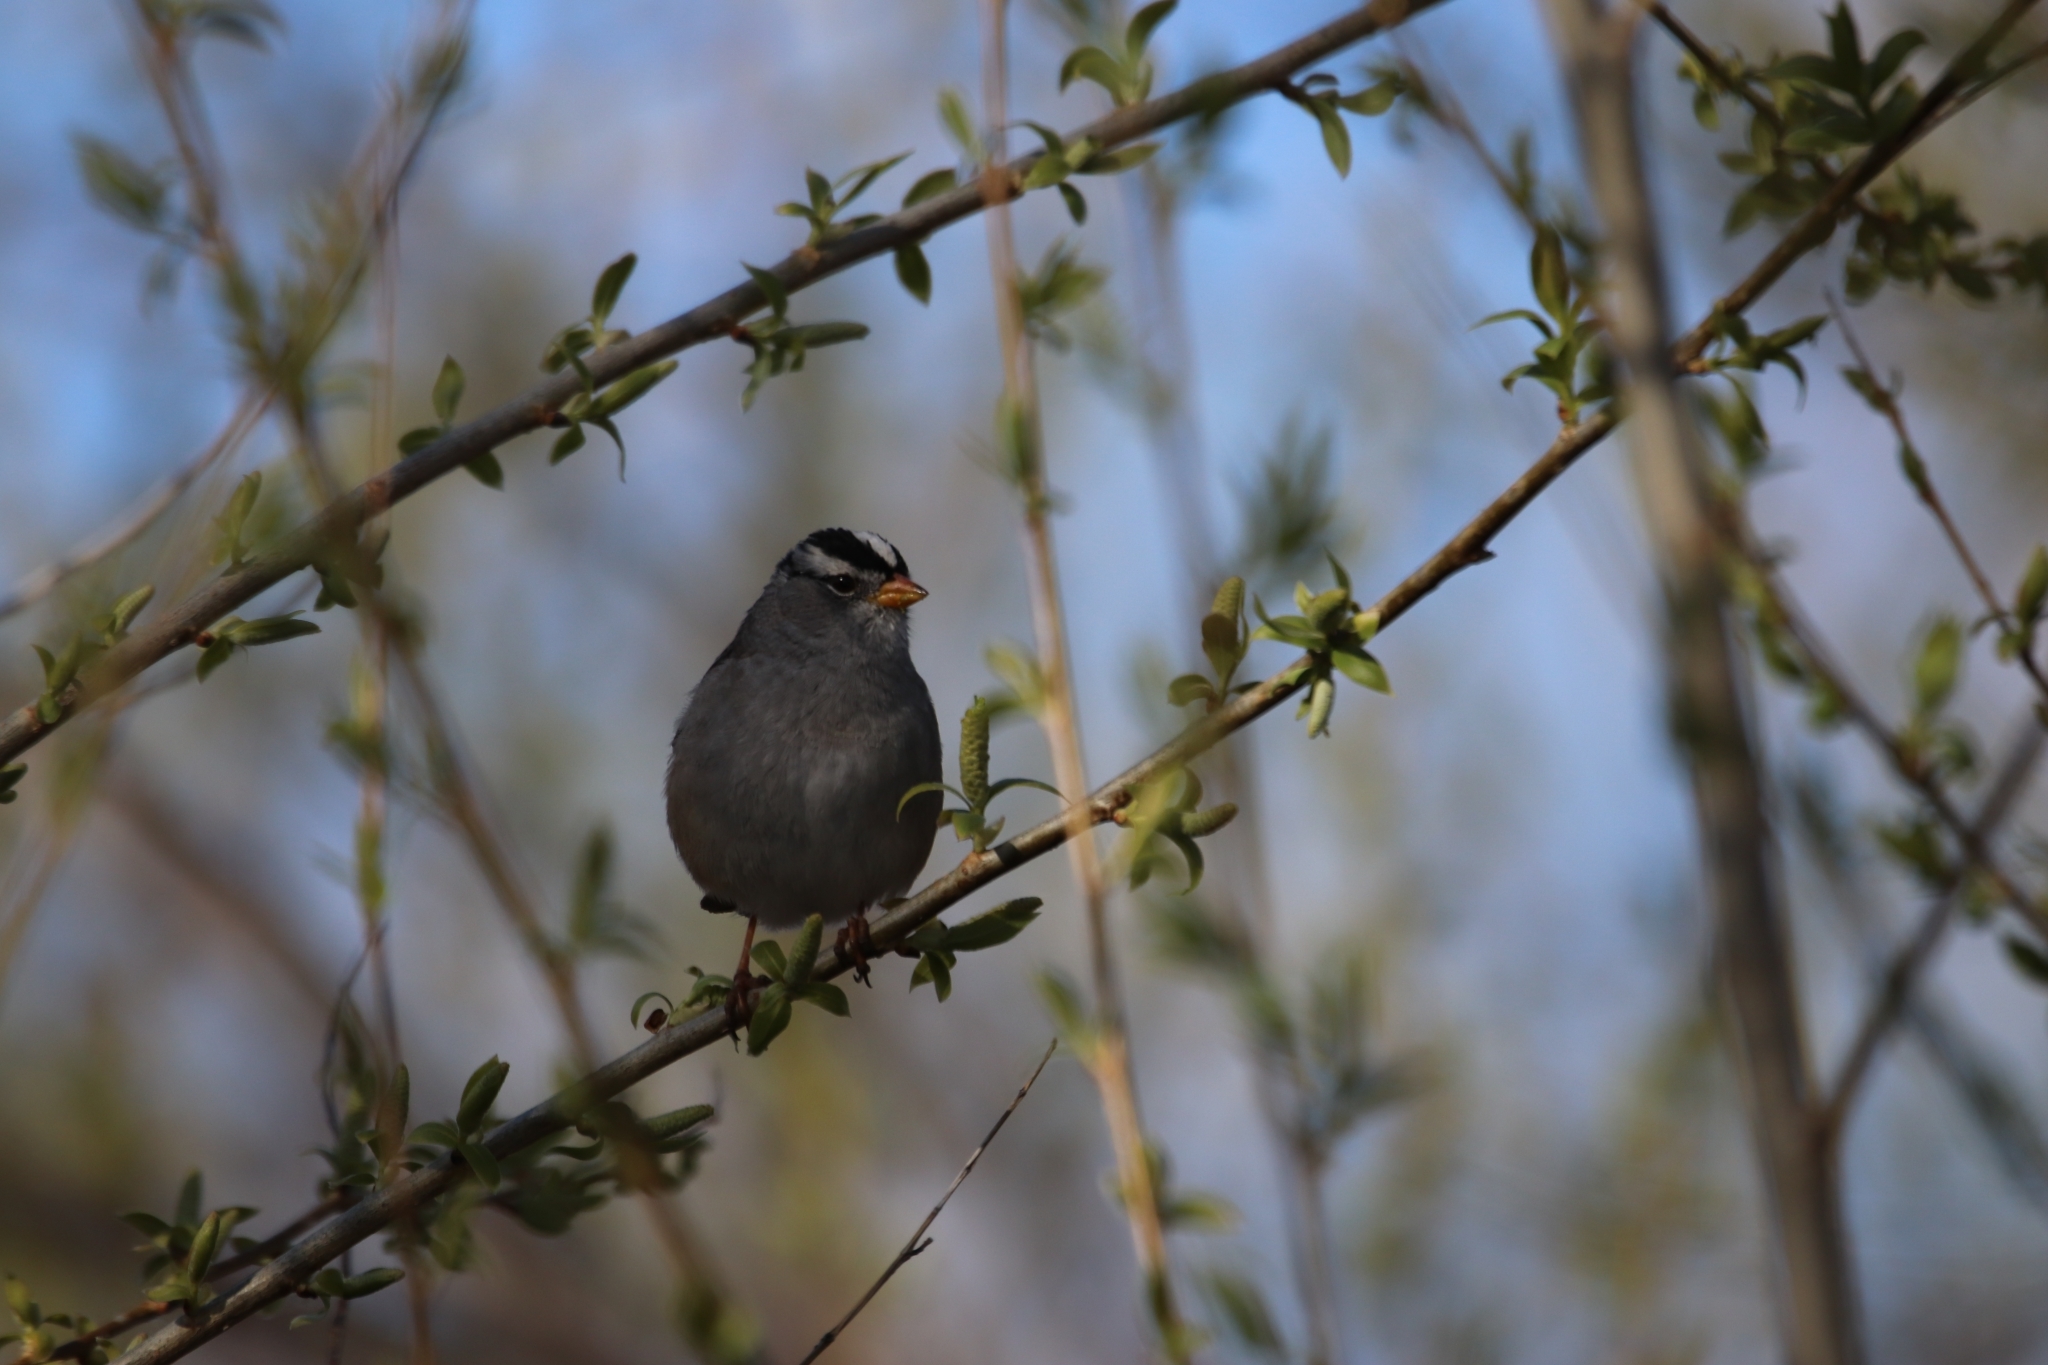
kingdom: Animalia
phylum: Chordata
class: Aves
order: Passeriformes
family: Passerellidae
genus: Zonotrichia
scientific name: Zonotrichia leucophrys
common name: White-crowned sparrow
